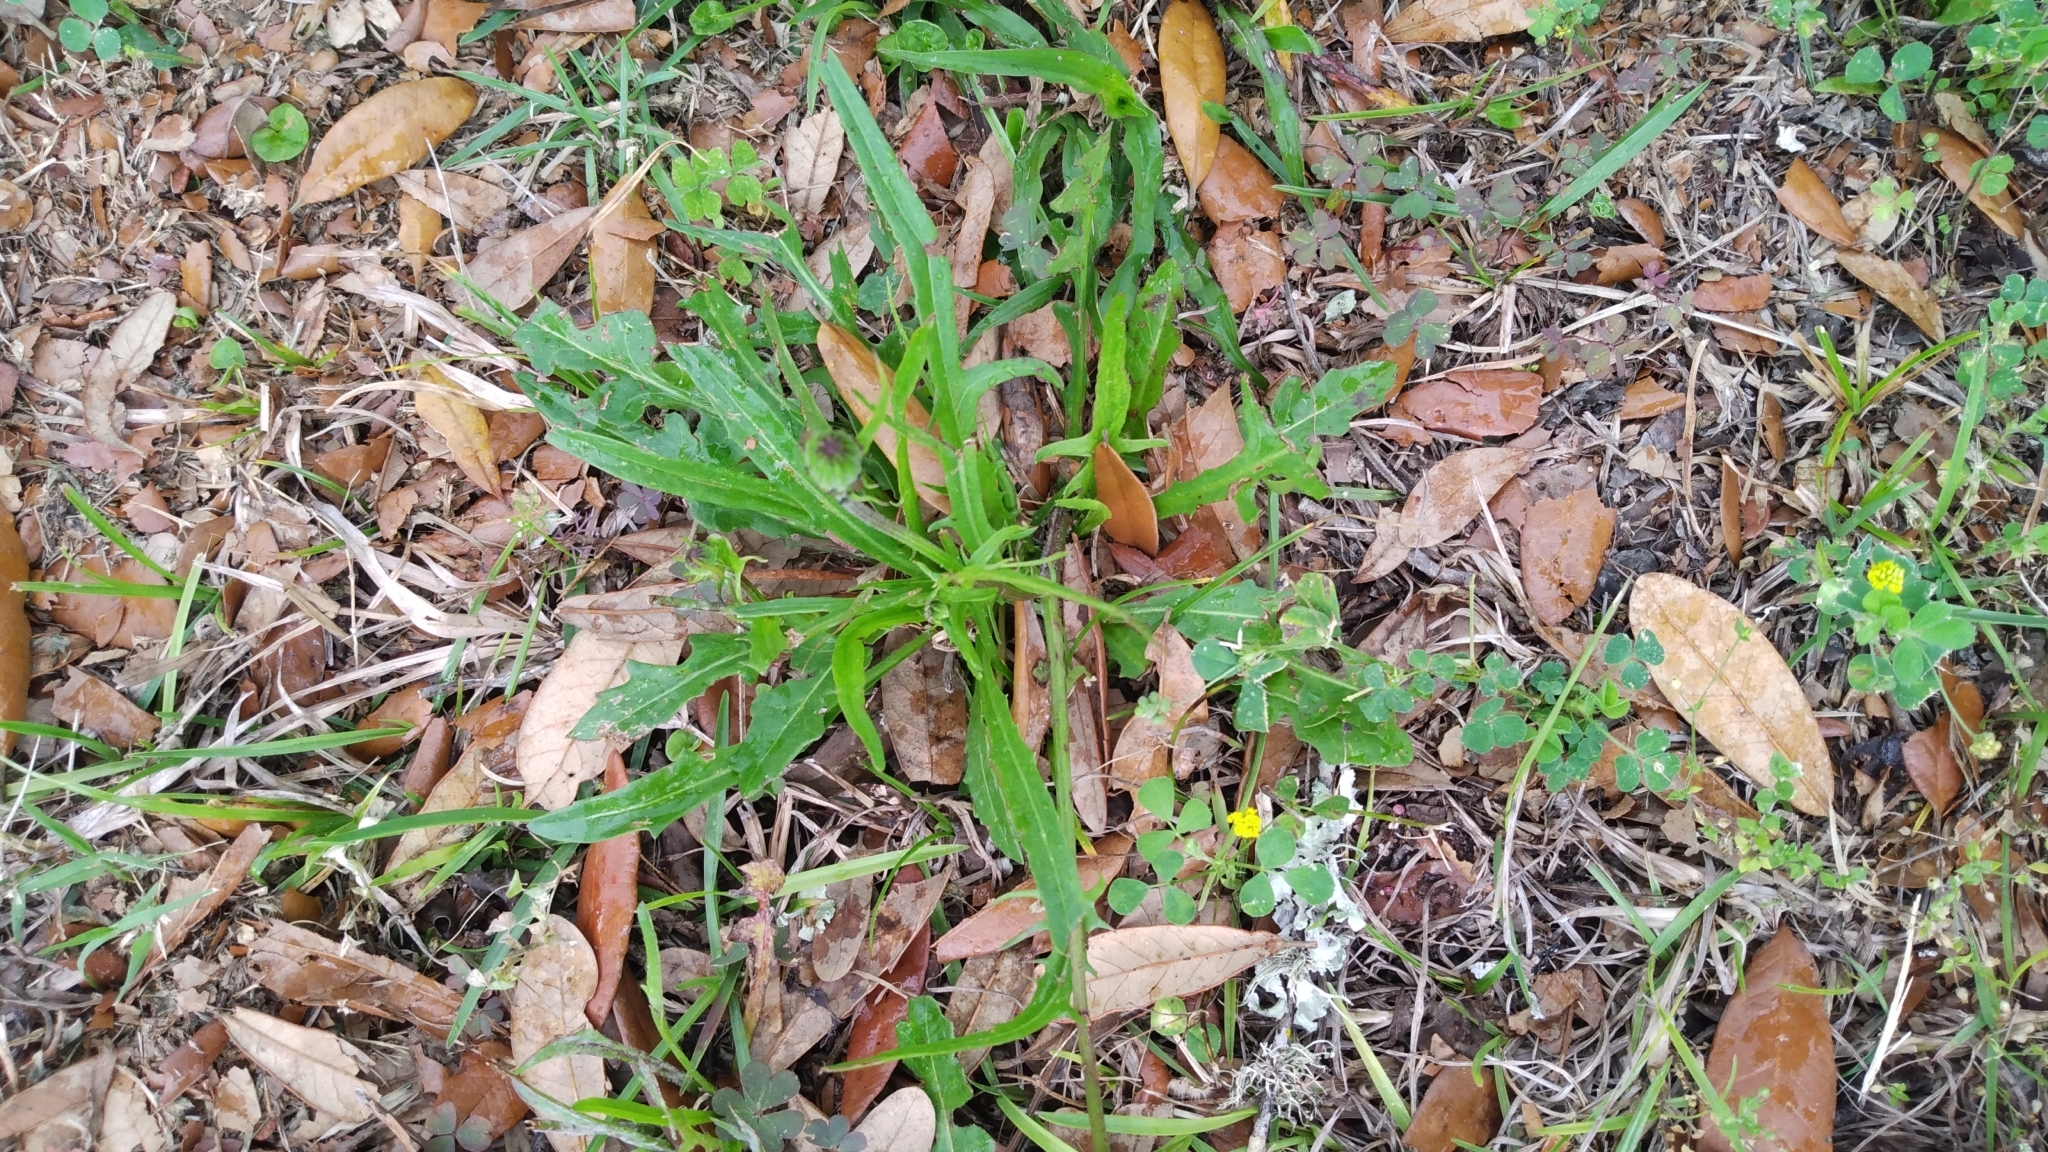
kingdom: Plantae
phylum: Tracheophyta
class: Magnoliopsida
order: Caryophyllales
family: Portulacaceae
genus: Portulaca
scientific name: Portulaca pilosa
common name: Kiss me quick
